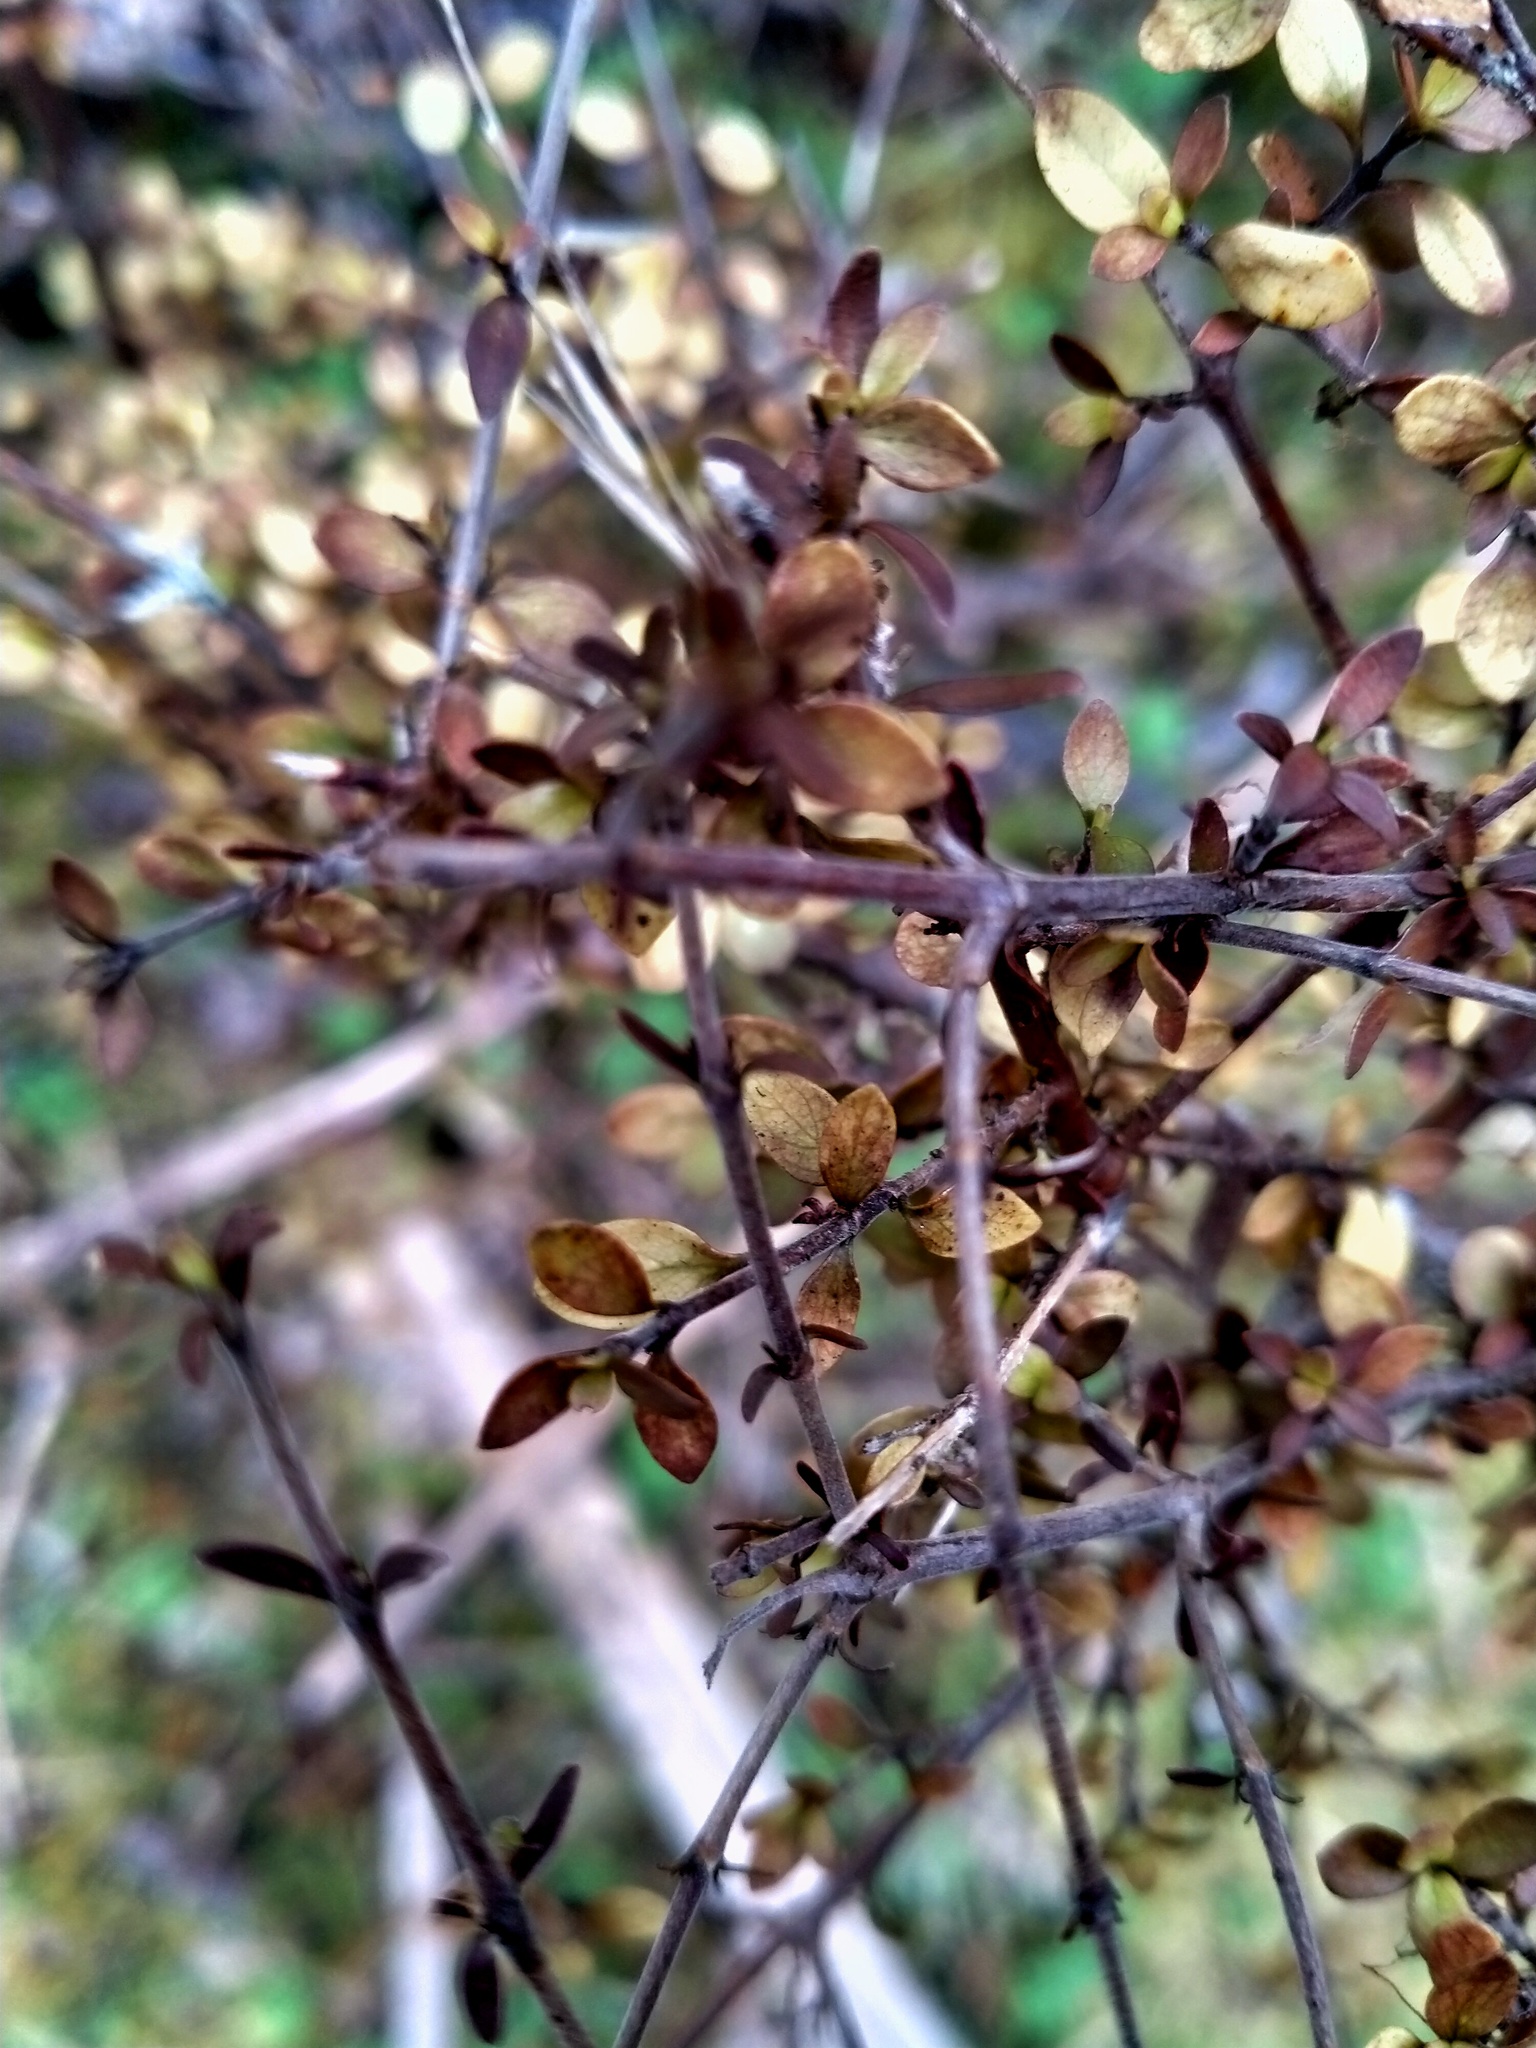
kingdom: Plantae
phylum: Tracheophyta
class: Magnoliopsida
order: Gentianales
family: Rubiaceae
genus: Coprosma
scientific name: Coprosma rhamnoides
